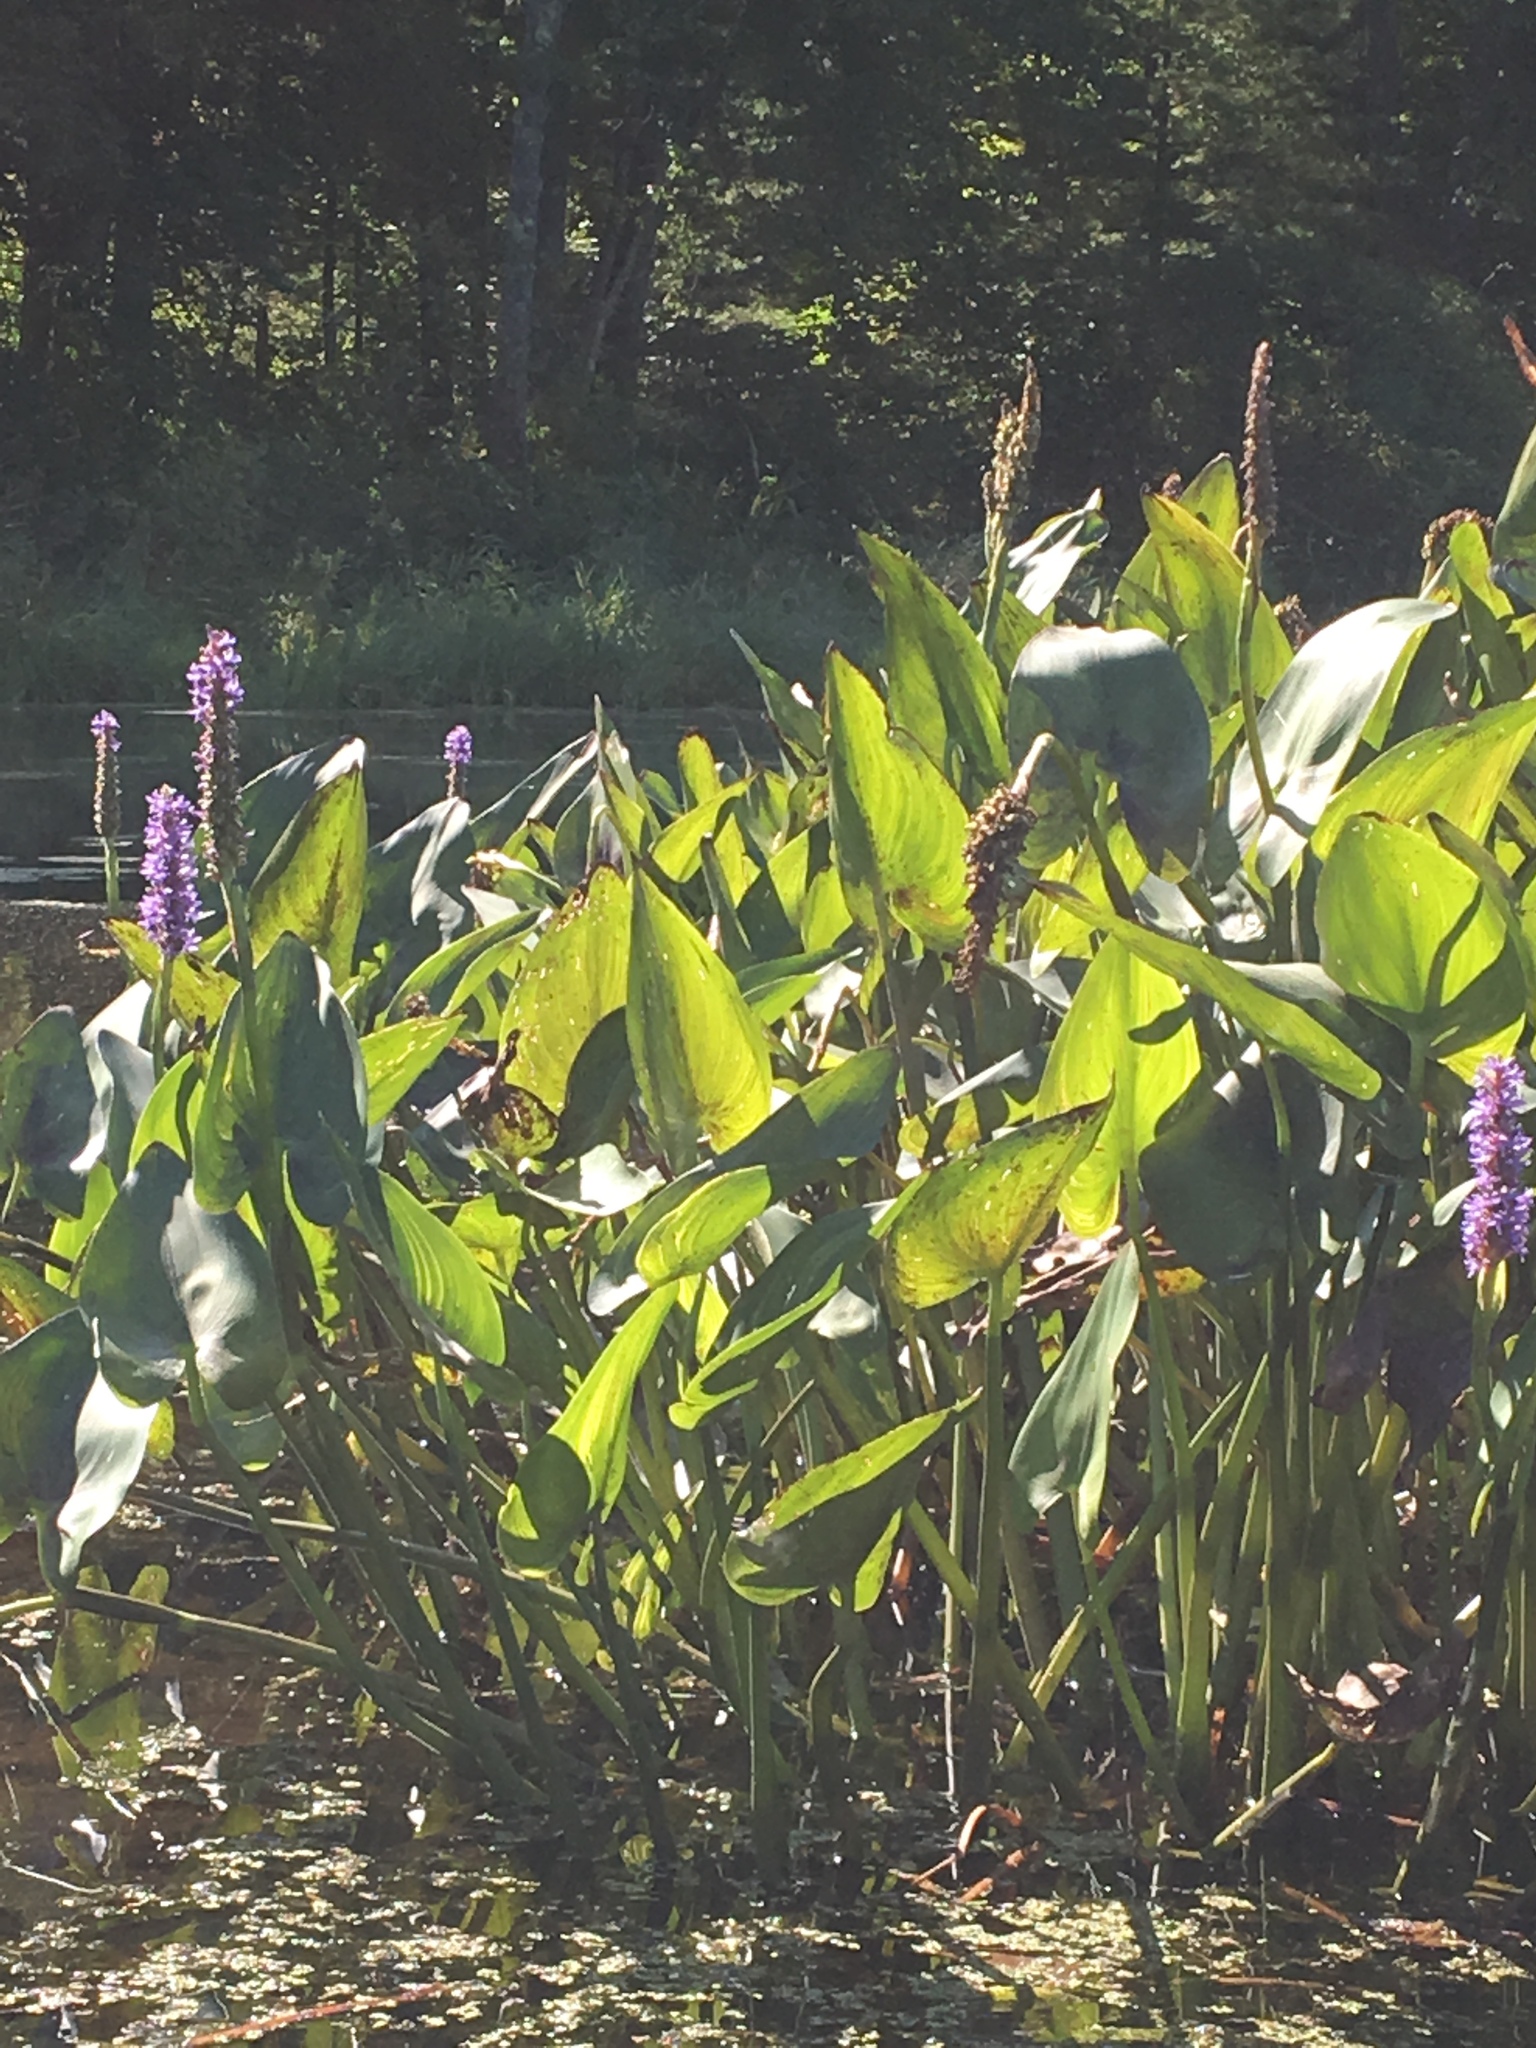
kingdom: Plantae
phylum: Tracheophyta
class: Liliopsida
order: Commelinales
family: Pontederiaceae
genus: Pontederia
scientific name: Pontederia cordata
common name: Pickerelweed
